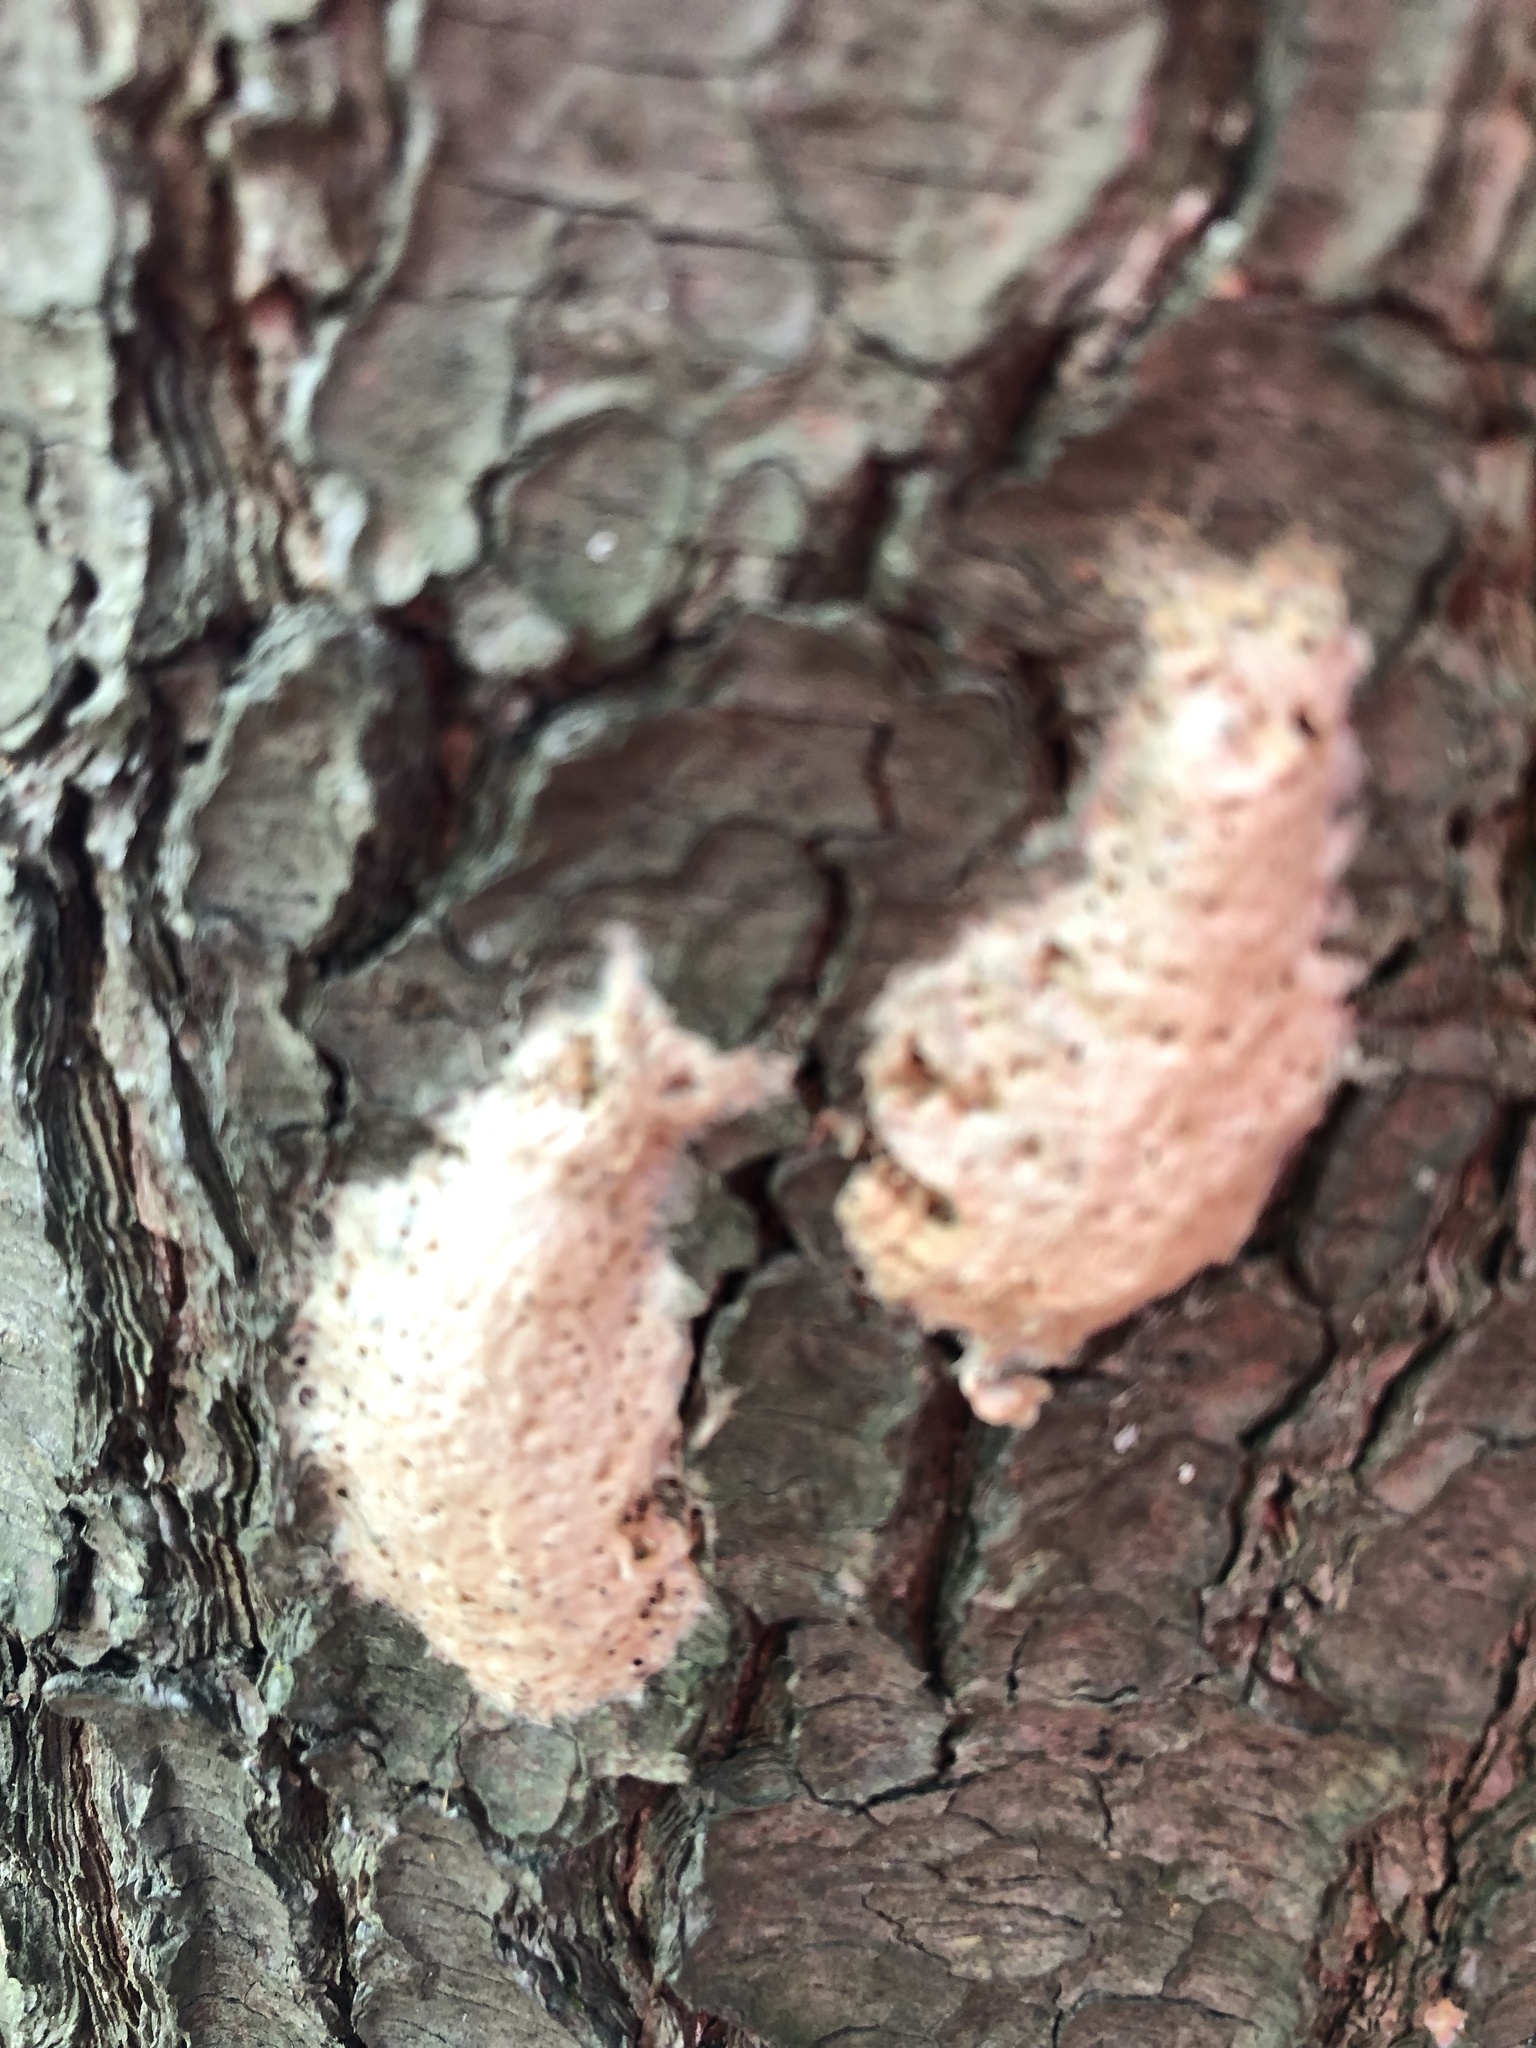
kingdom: Animalia
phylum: Arthropoda
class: Insecta
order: Lepidoptera
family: Erebidae
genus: Lymantria
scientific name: Lymantria dispar
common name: Gypsy moth
